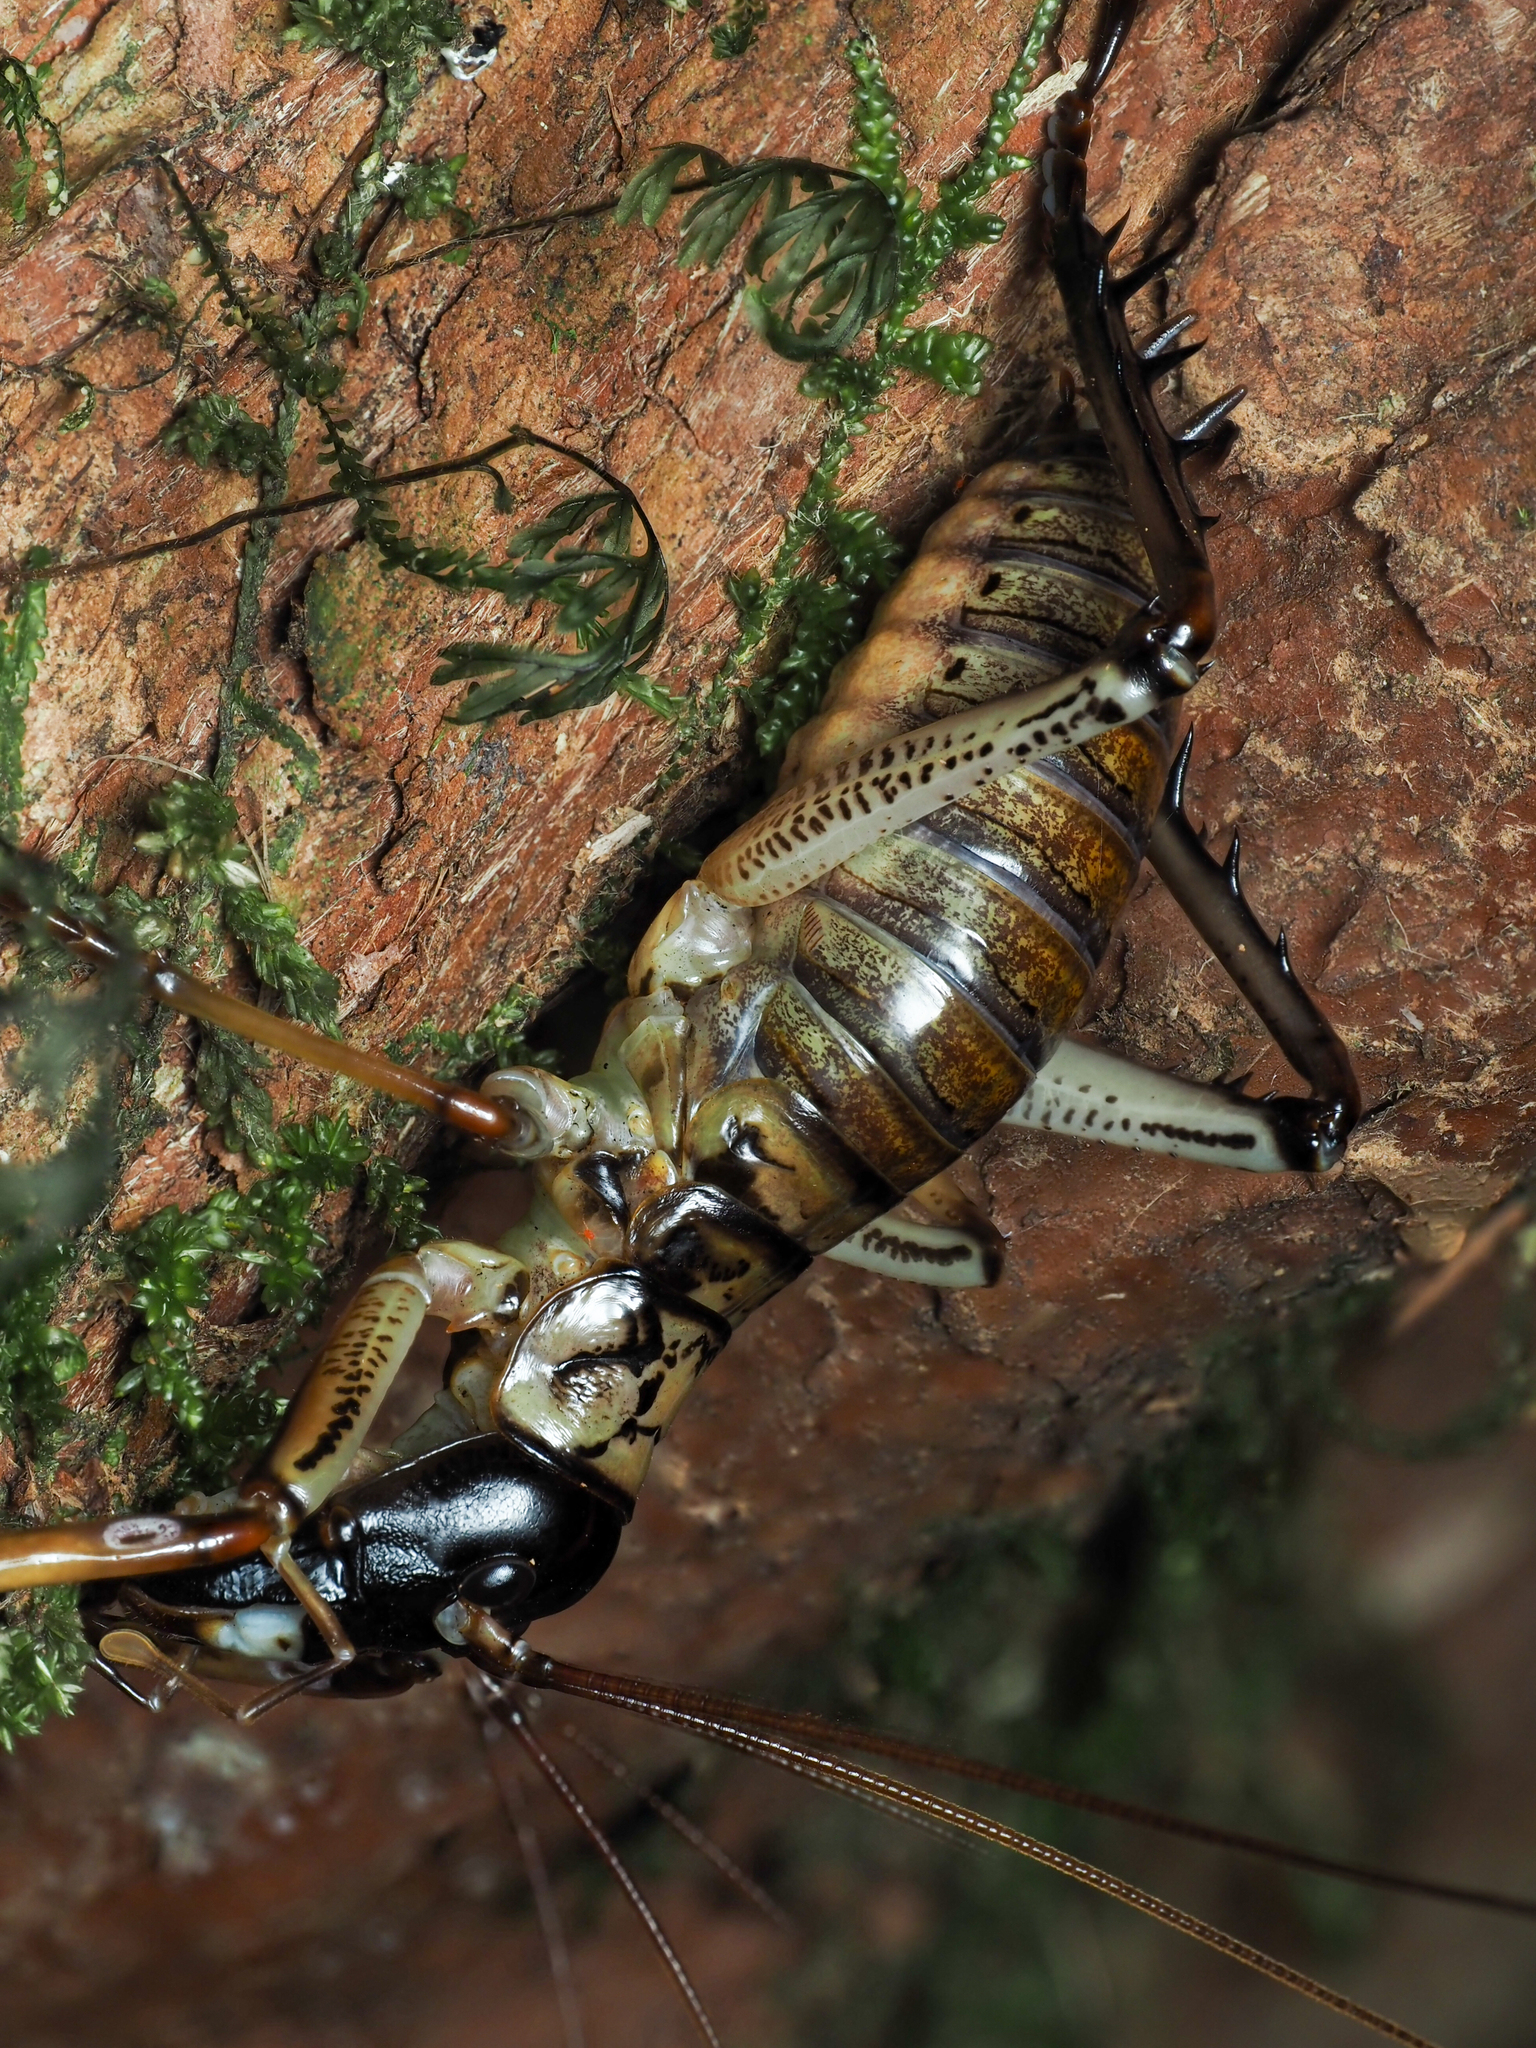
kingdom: Animalia
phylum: Arthropoda
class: Insecta
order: Orthoptera
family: Anostostomatidae
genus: Hemideina
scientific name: Hemideina thoracica
